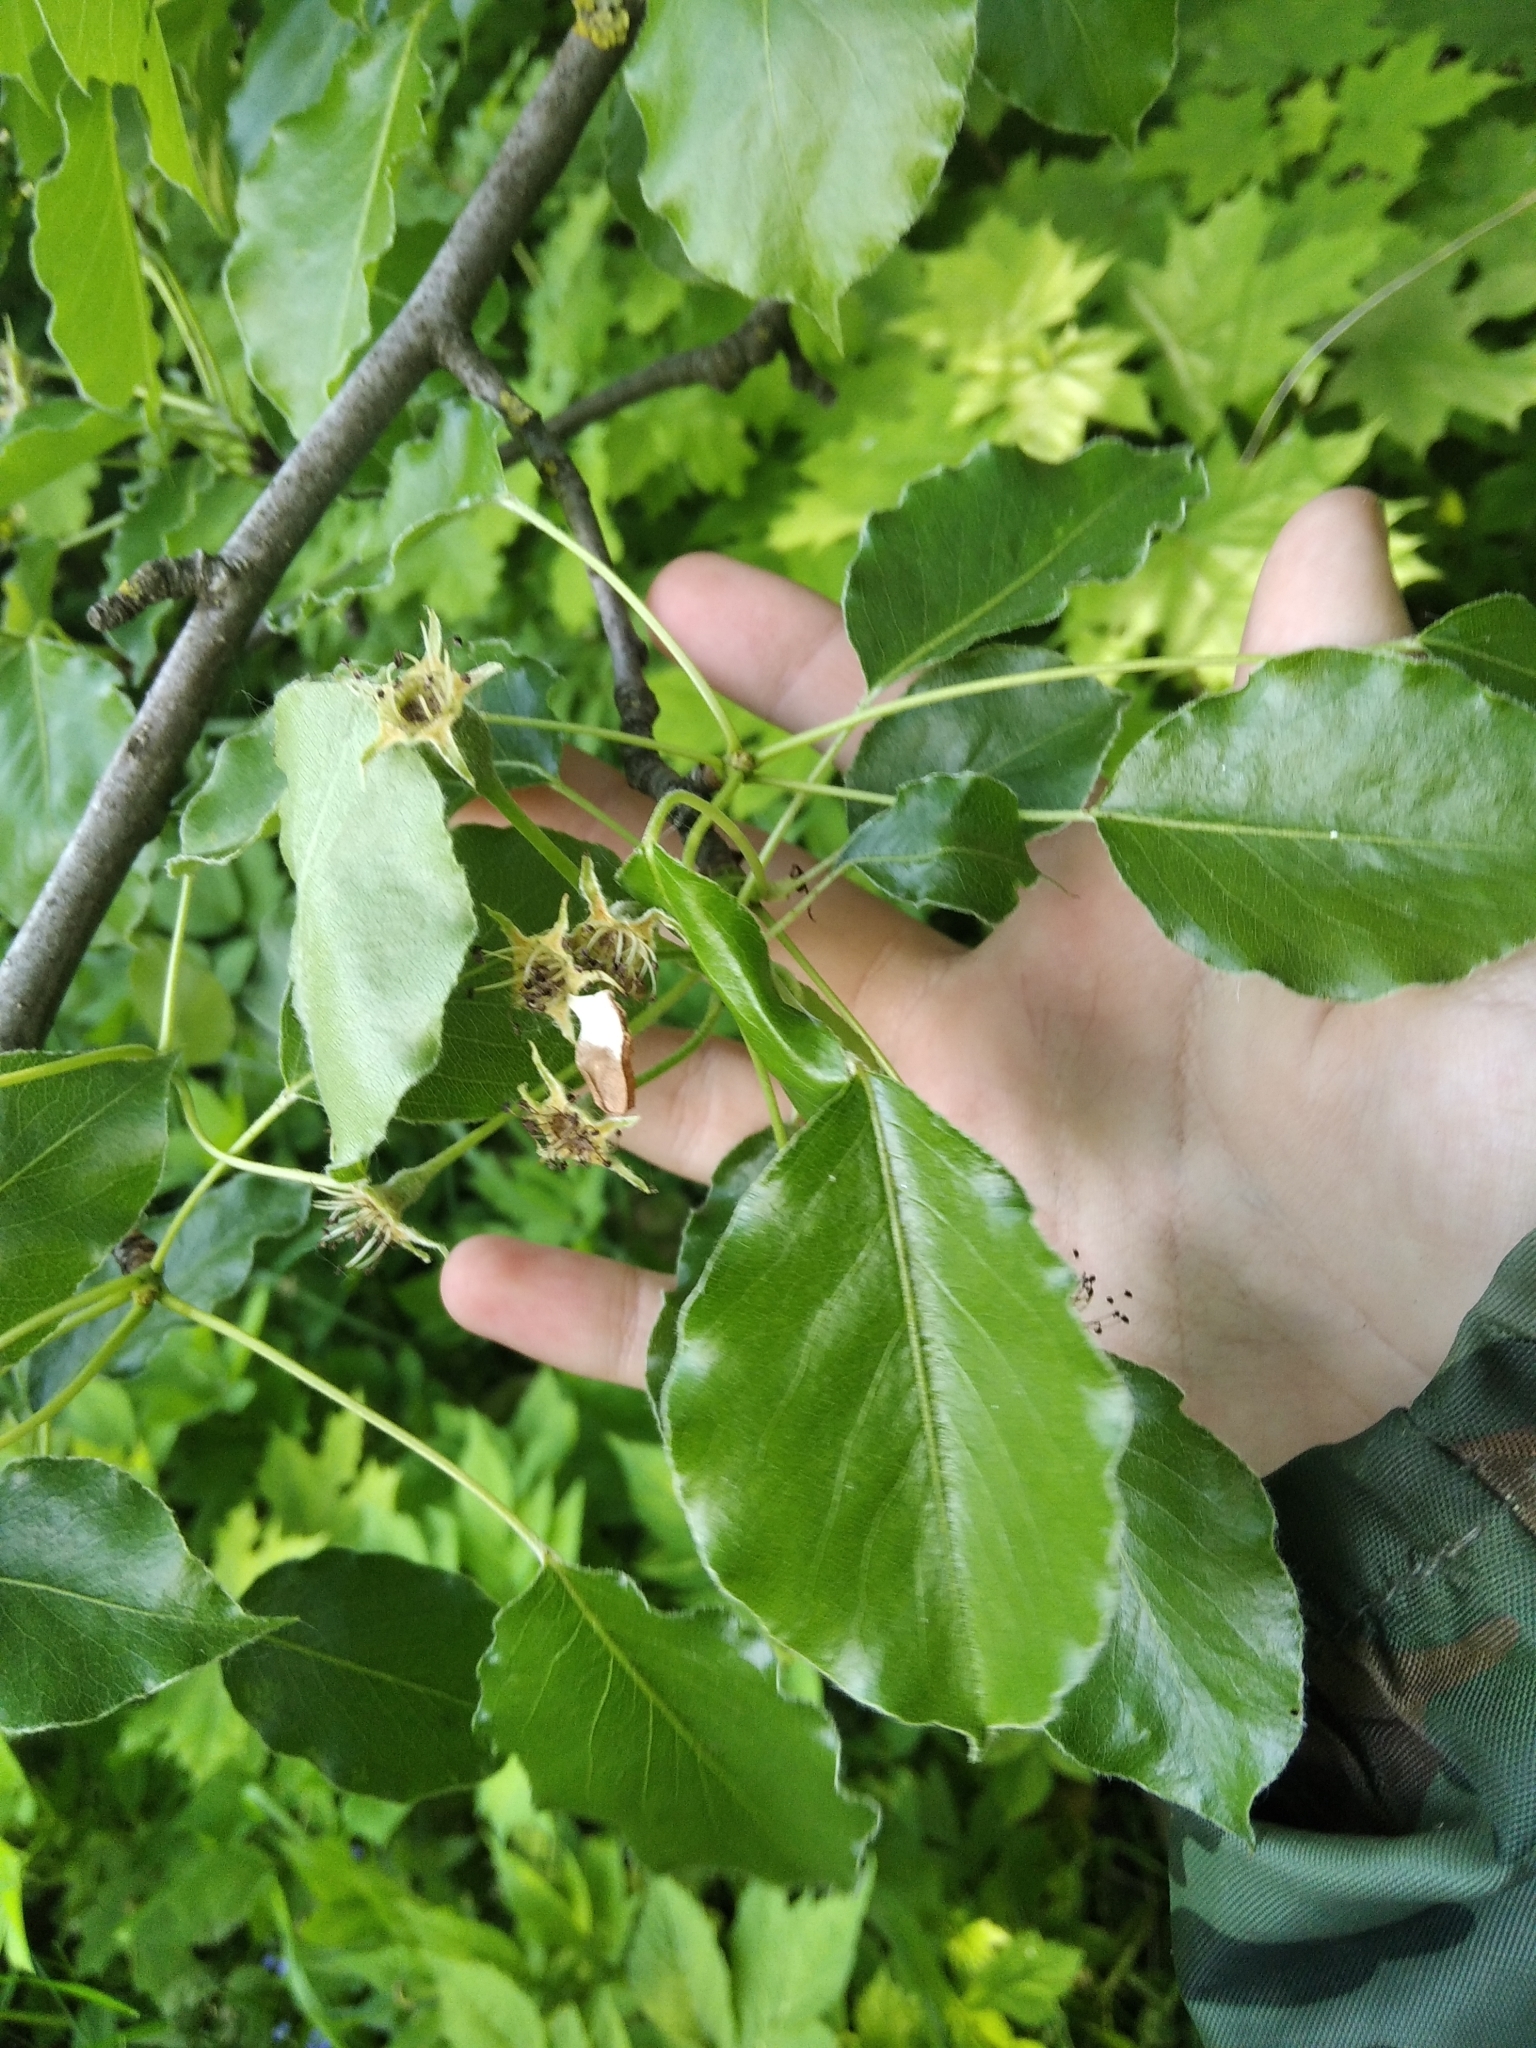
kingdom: Plantae
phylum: Tracheophyta
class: Magnoliopsida
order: Rosales
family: Rosaceae
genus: Pyrus
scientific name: Pyrus communis
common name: Pear
